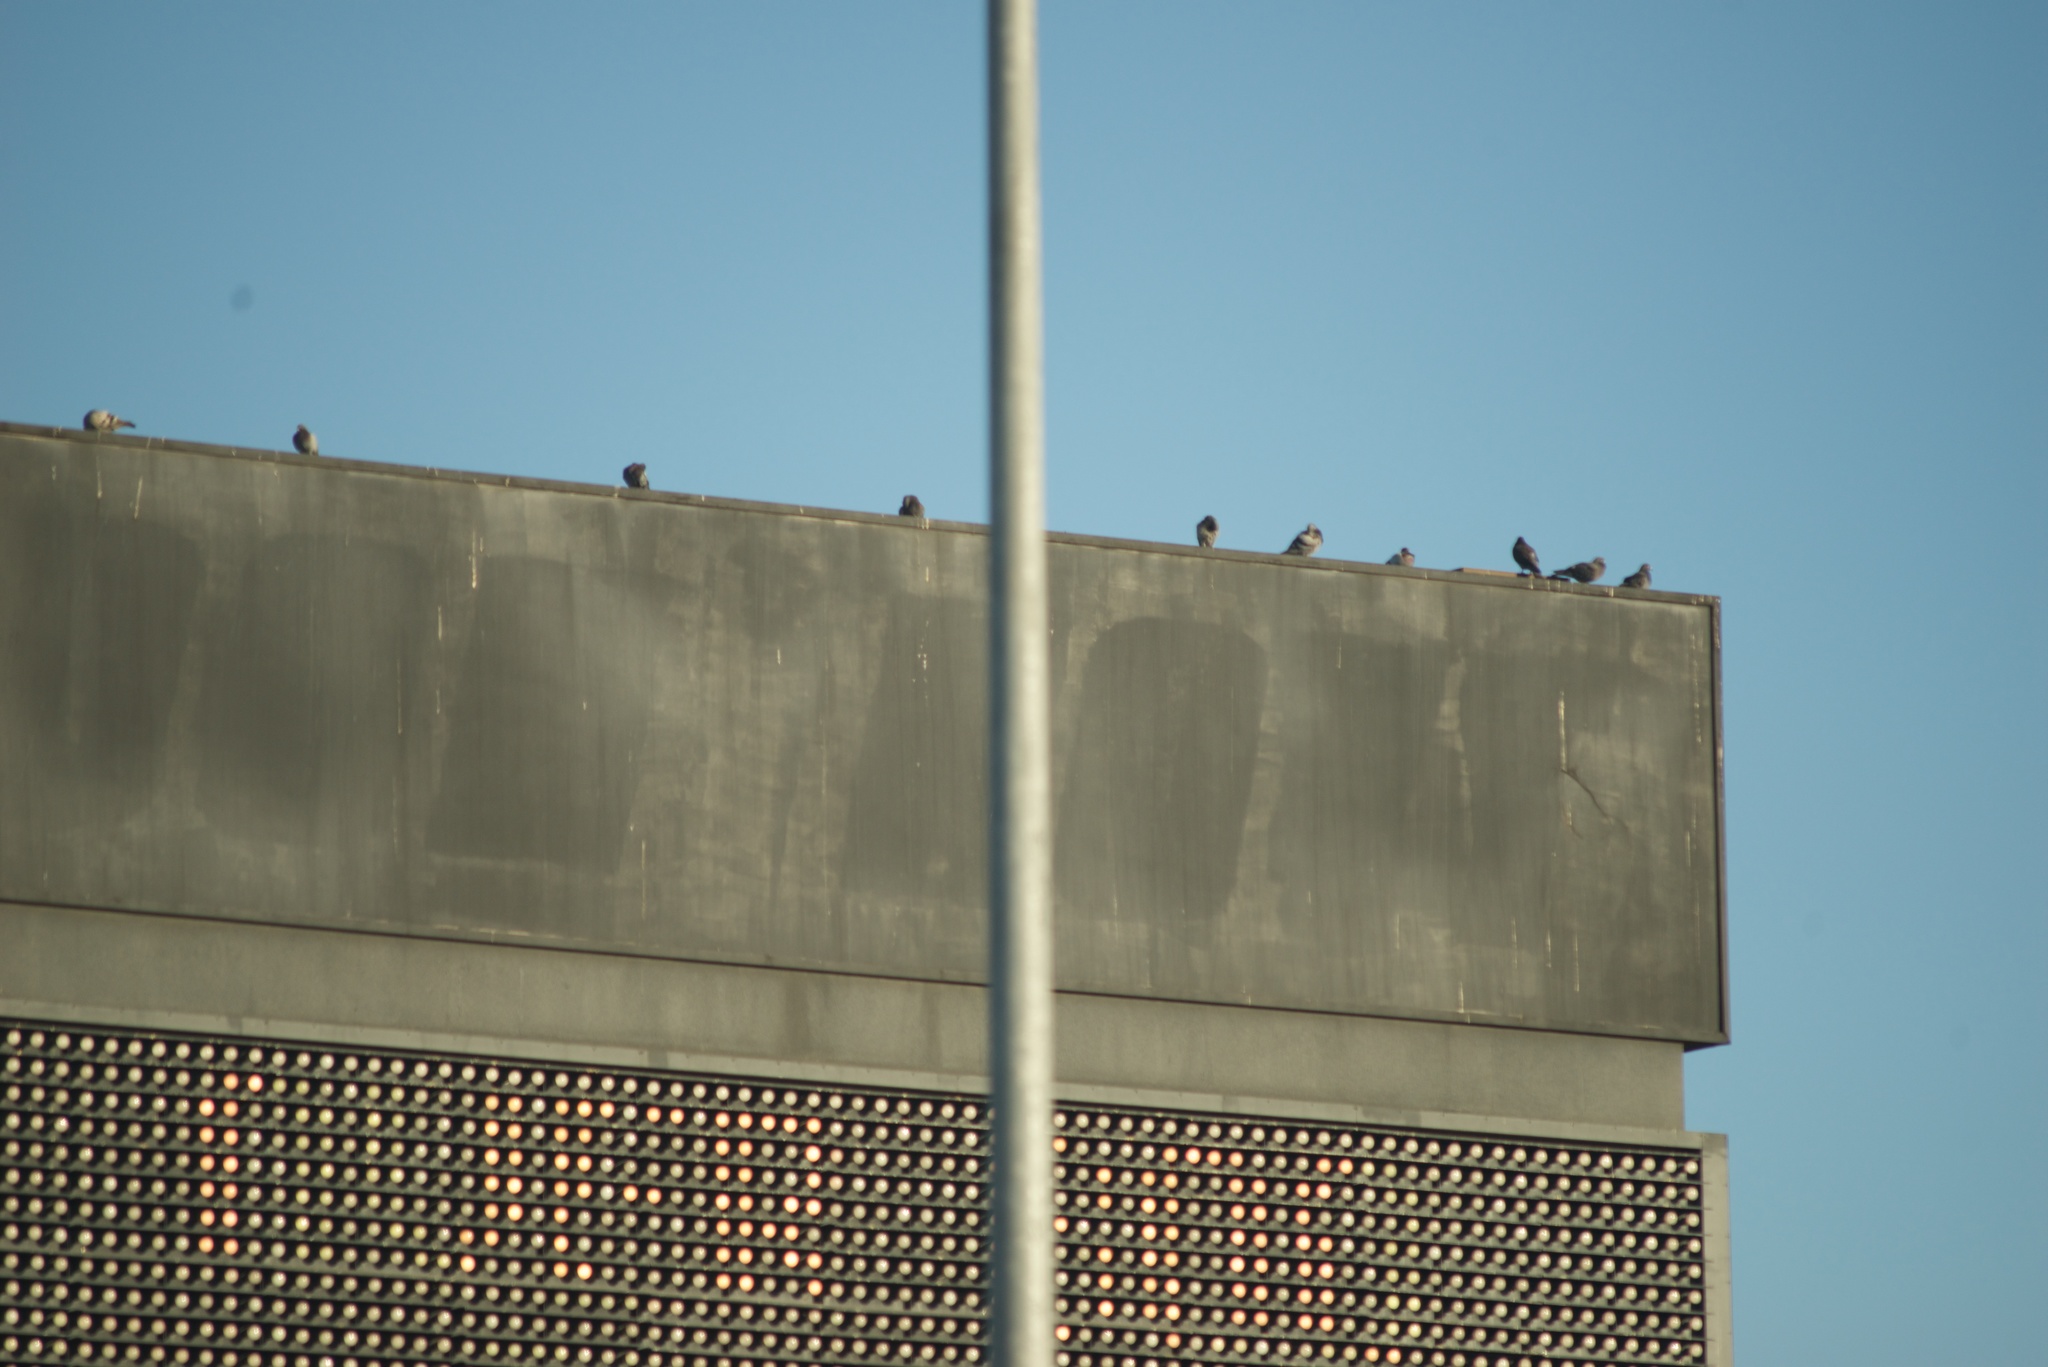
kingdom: Animalia
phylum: Chordata
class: Aves
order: Columbiformes
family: Columbidae
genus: Columba
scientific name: Columba livia
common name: Rock pigeon
